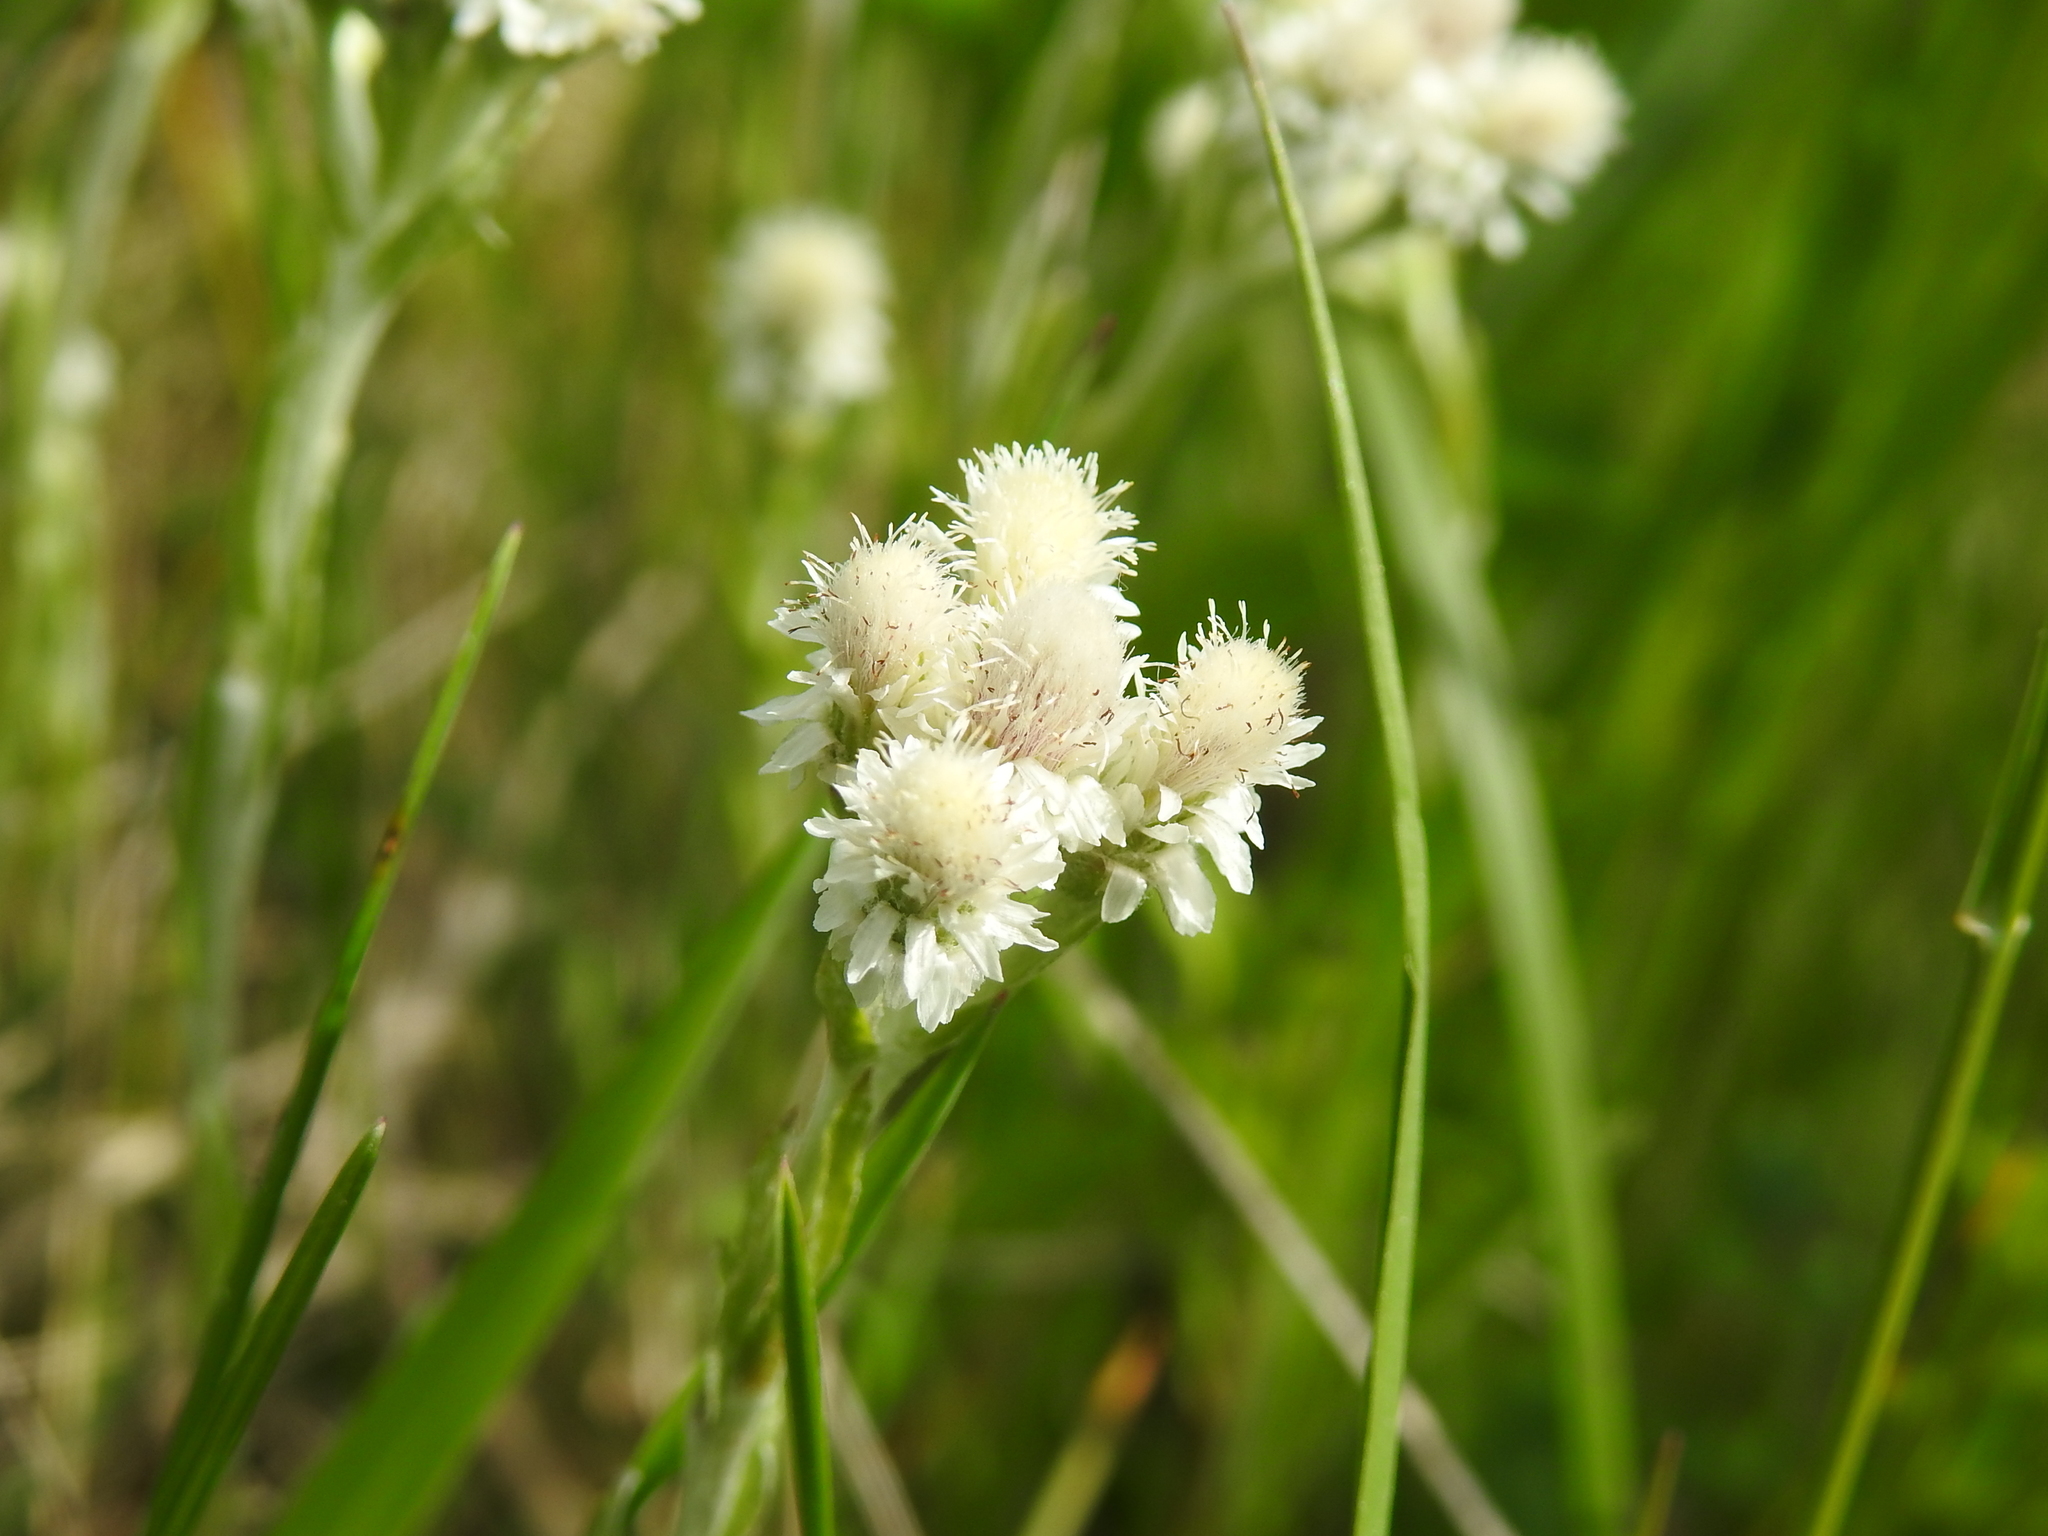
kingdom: Plantae
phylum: Tracheophyta
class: Magnoliopsida
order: Asterales
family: Asteraceae
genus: Antennaria
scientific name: Antennaria dioica
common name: Mountain everlasting
